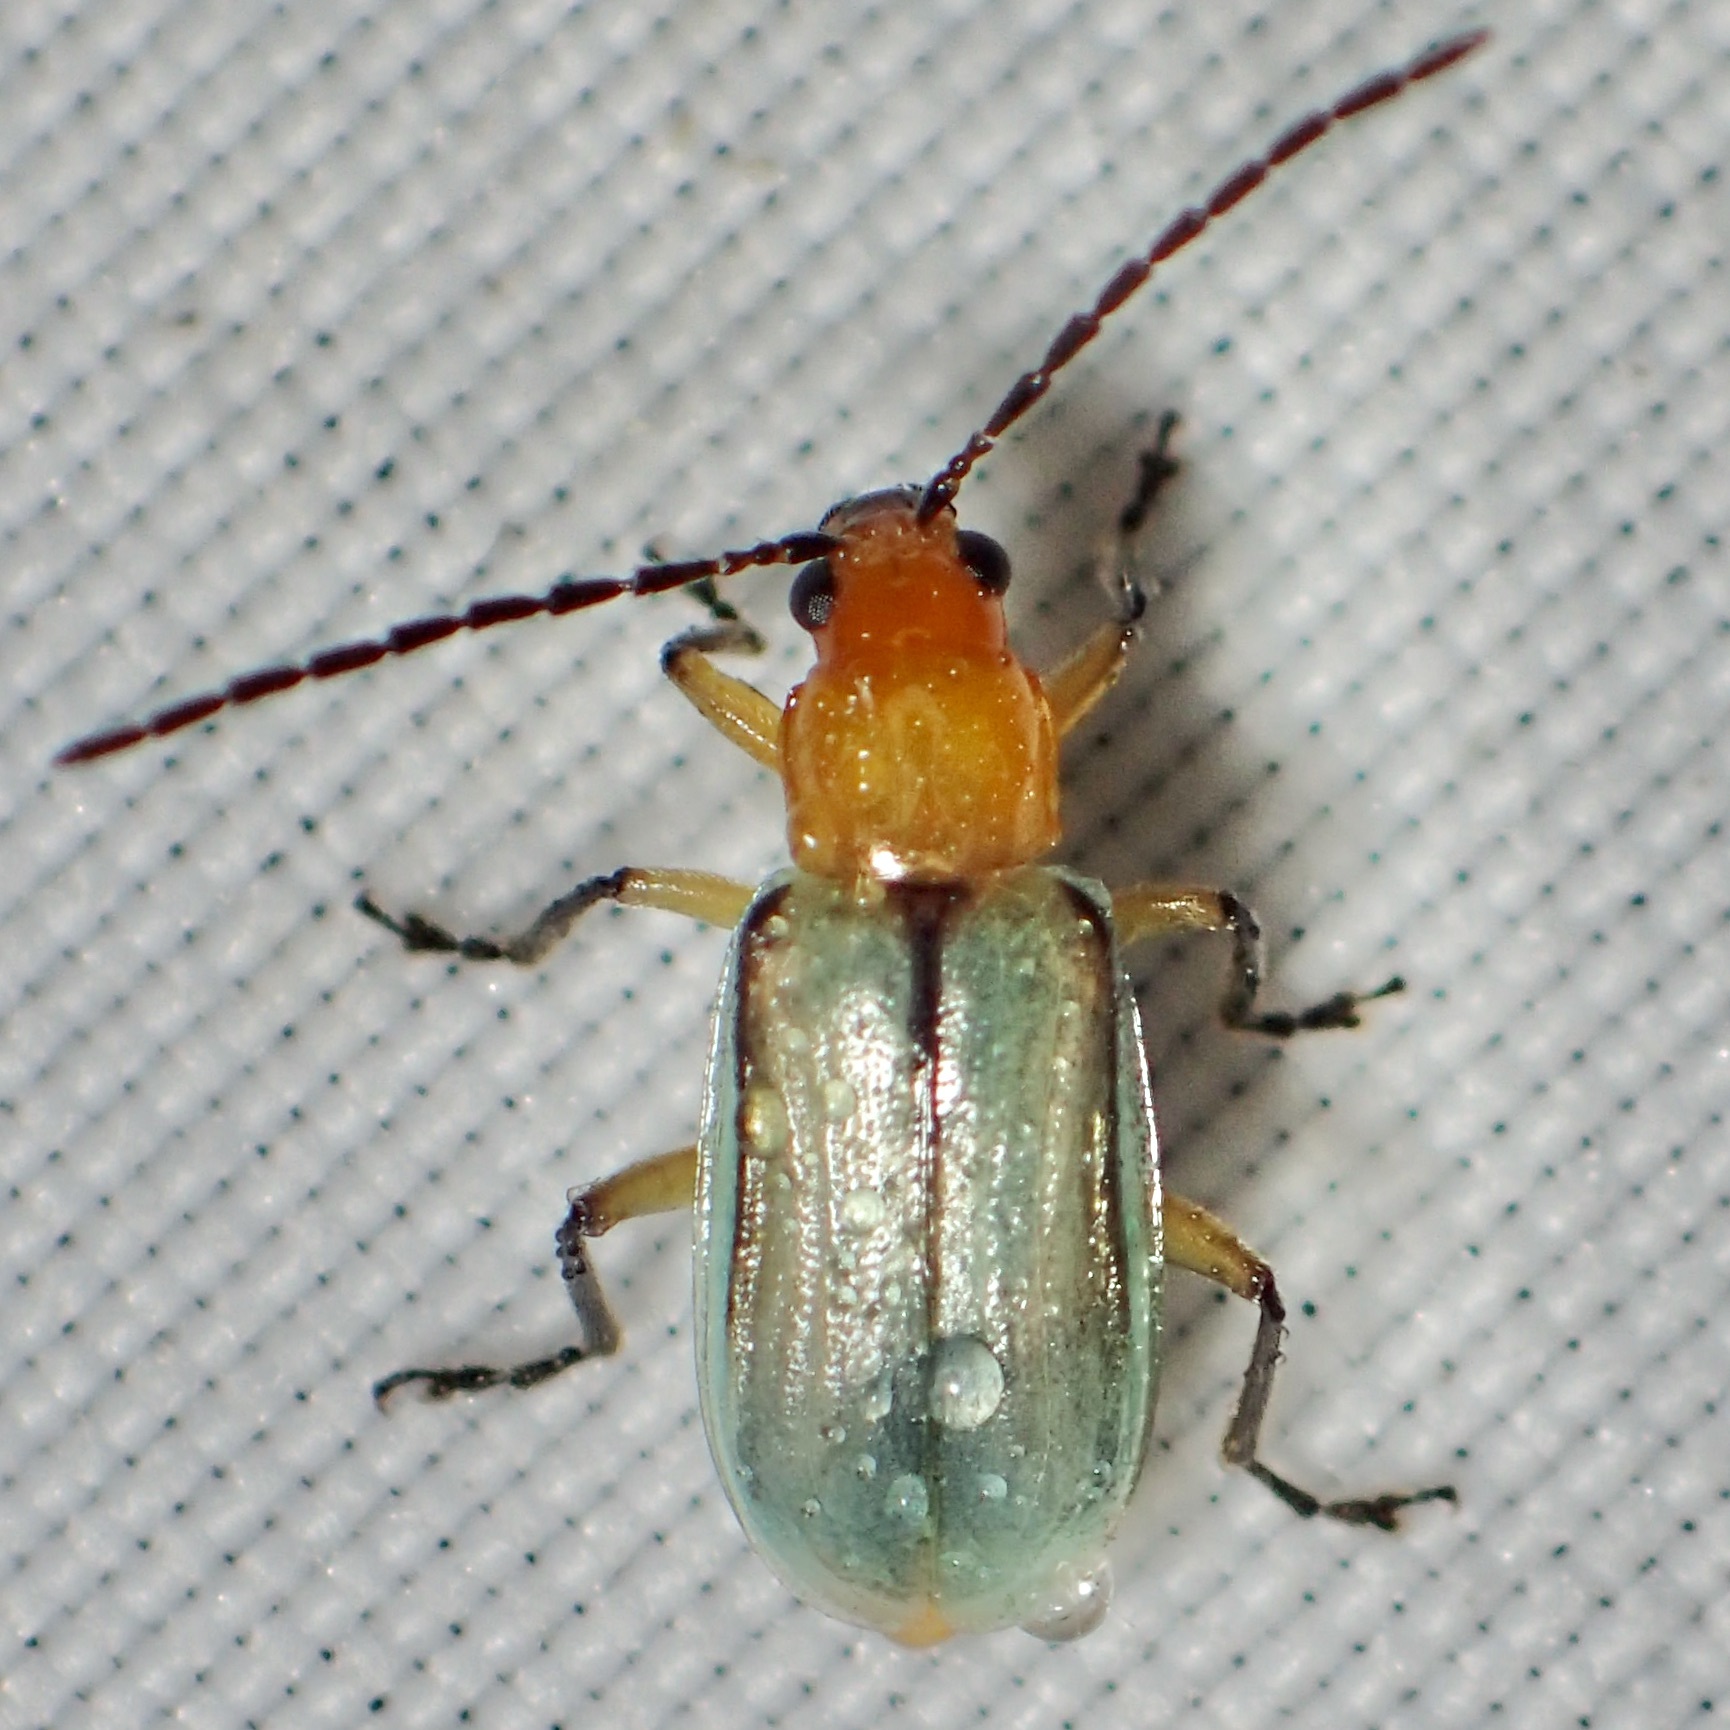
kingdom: Animalia
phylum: Arthropoda
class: Insecta
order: Coleoptera
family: Chrysomelidae
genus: Diabrotica
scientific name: Diabrotica longicornis
